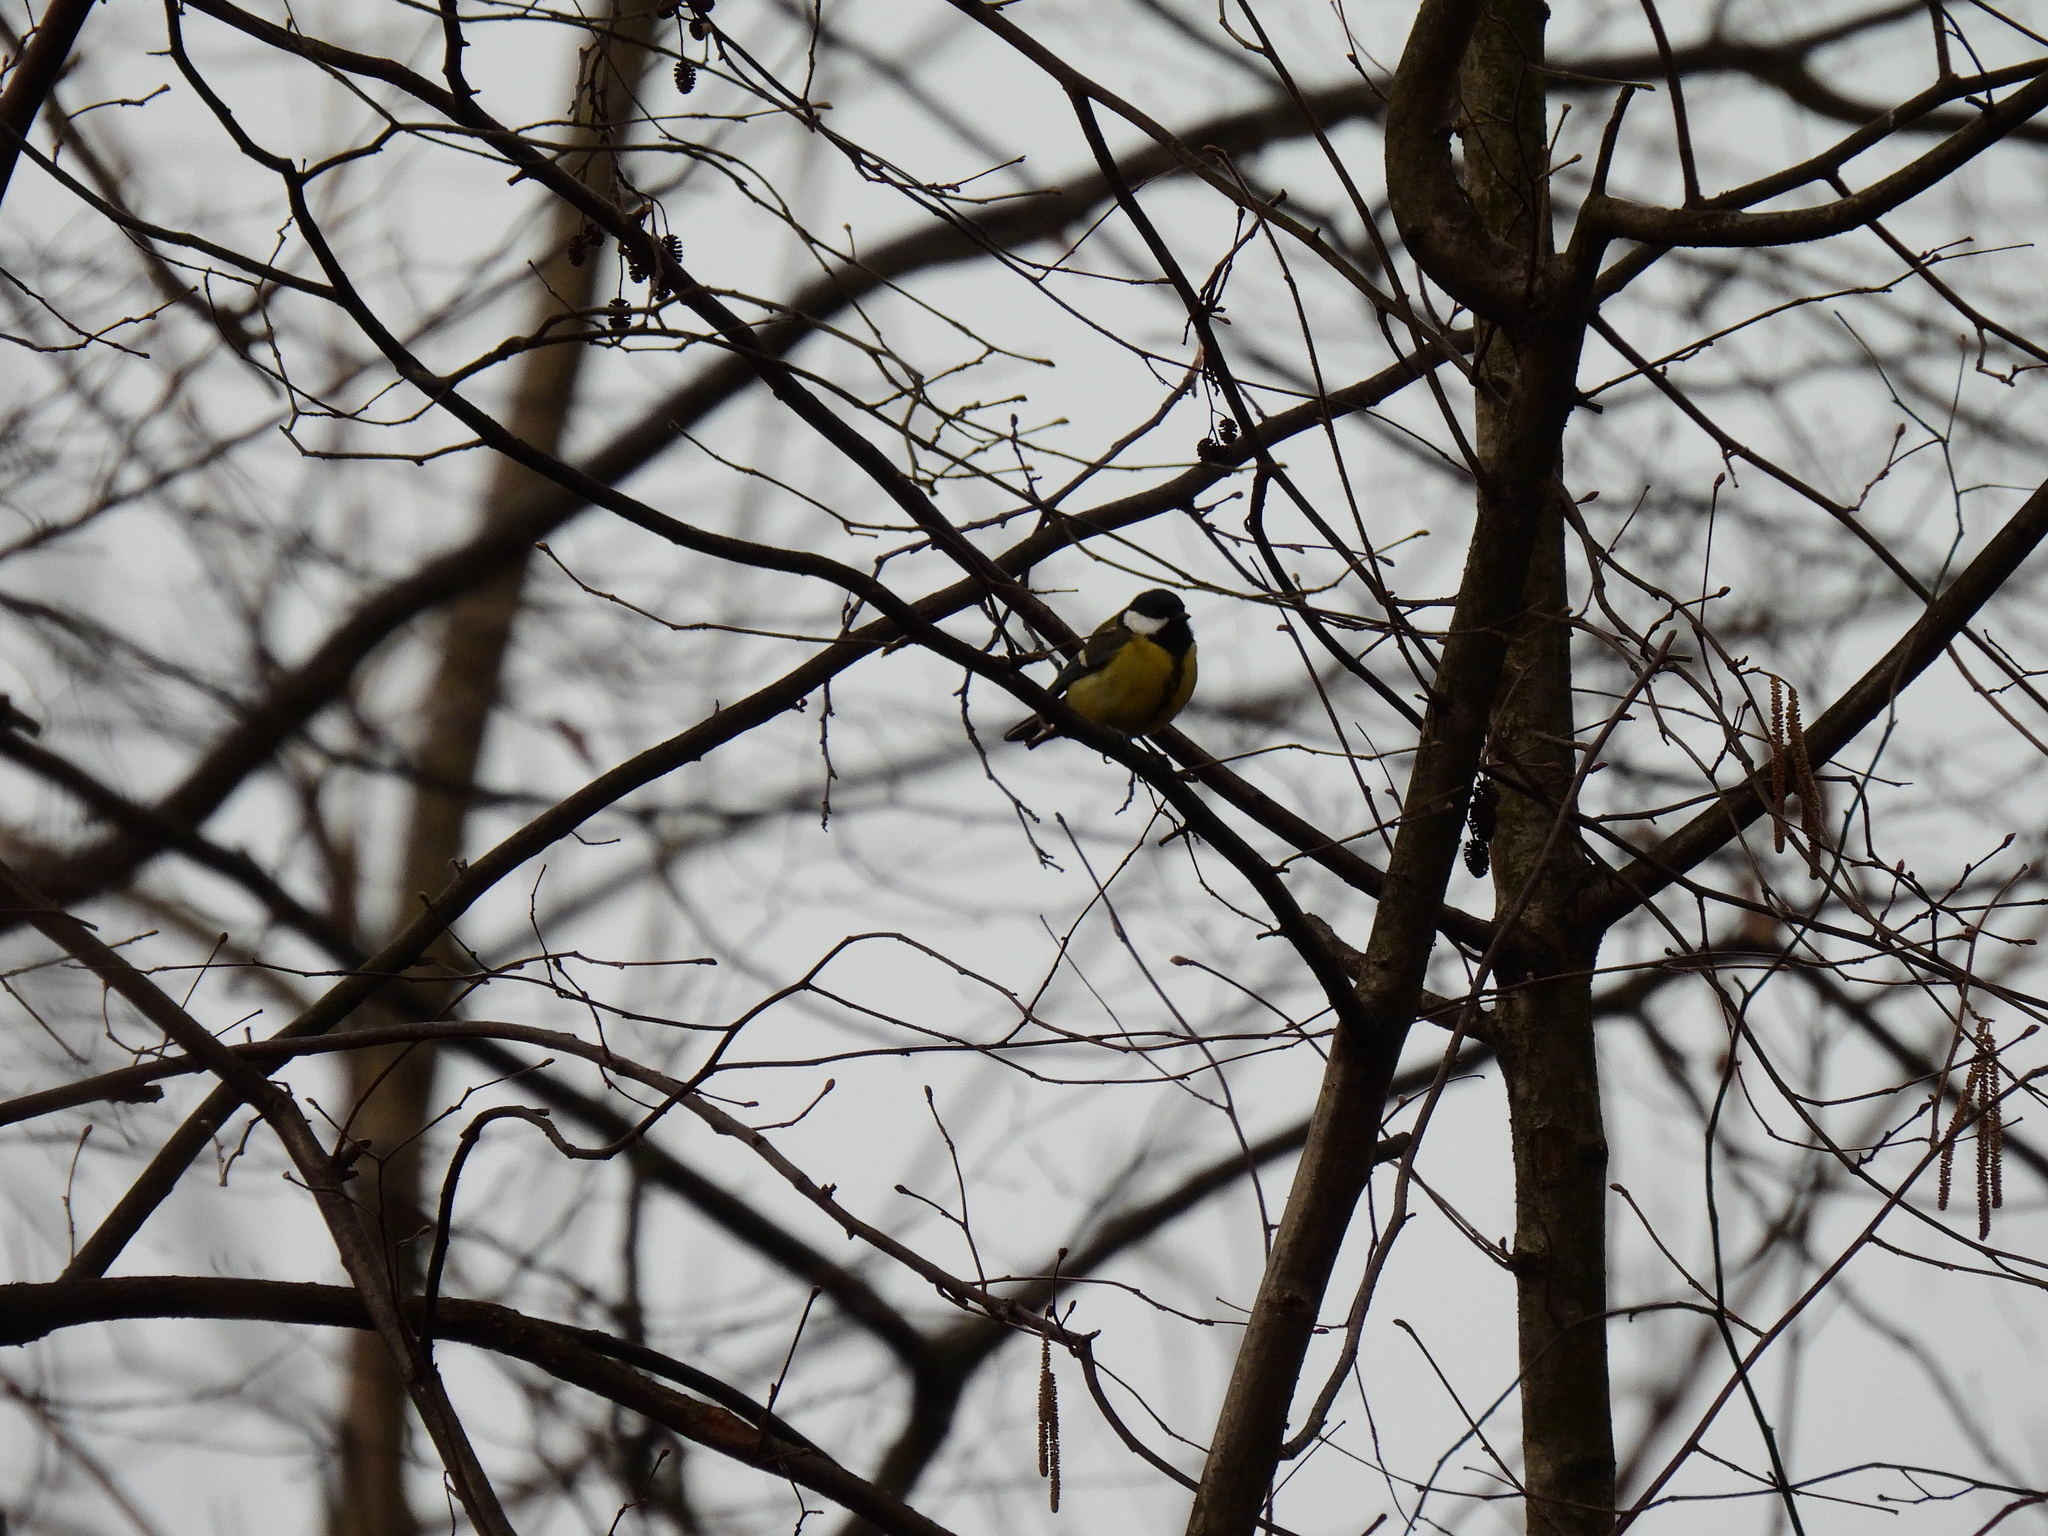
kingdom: Animalia
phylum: Chordata
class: Aves
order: Passeriformes
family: Paridae
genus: Parus
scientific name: Parus major
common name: Great tit
